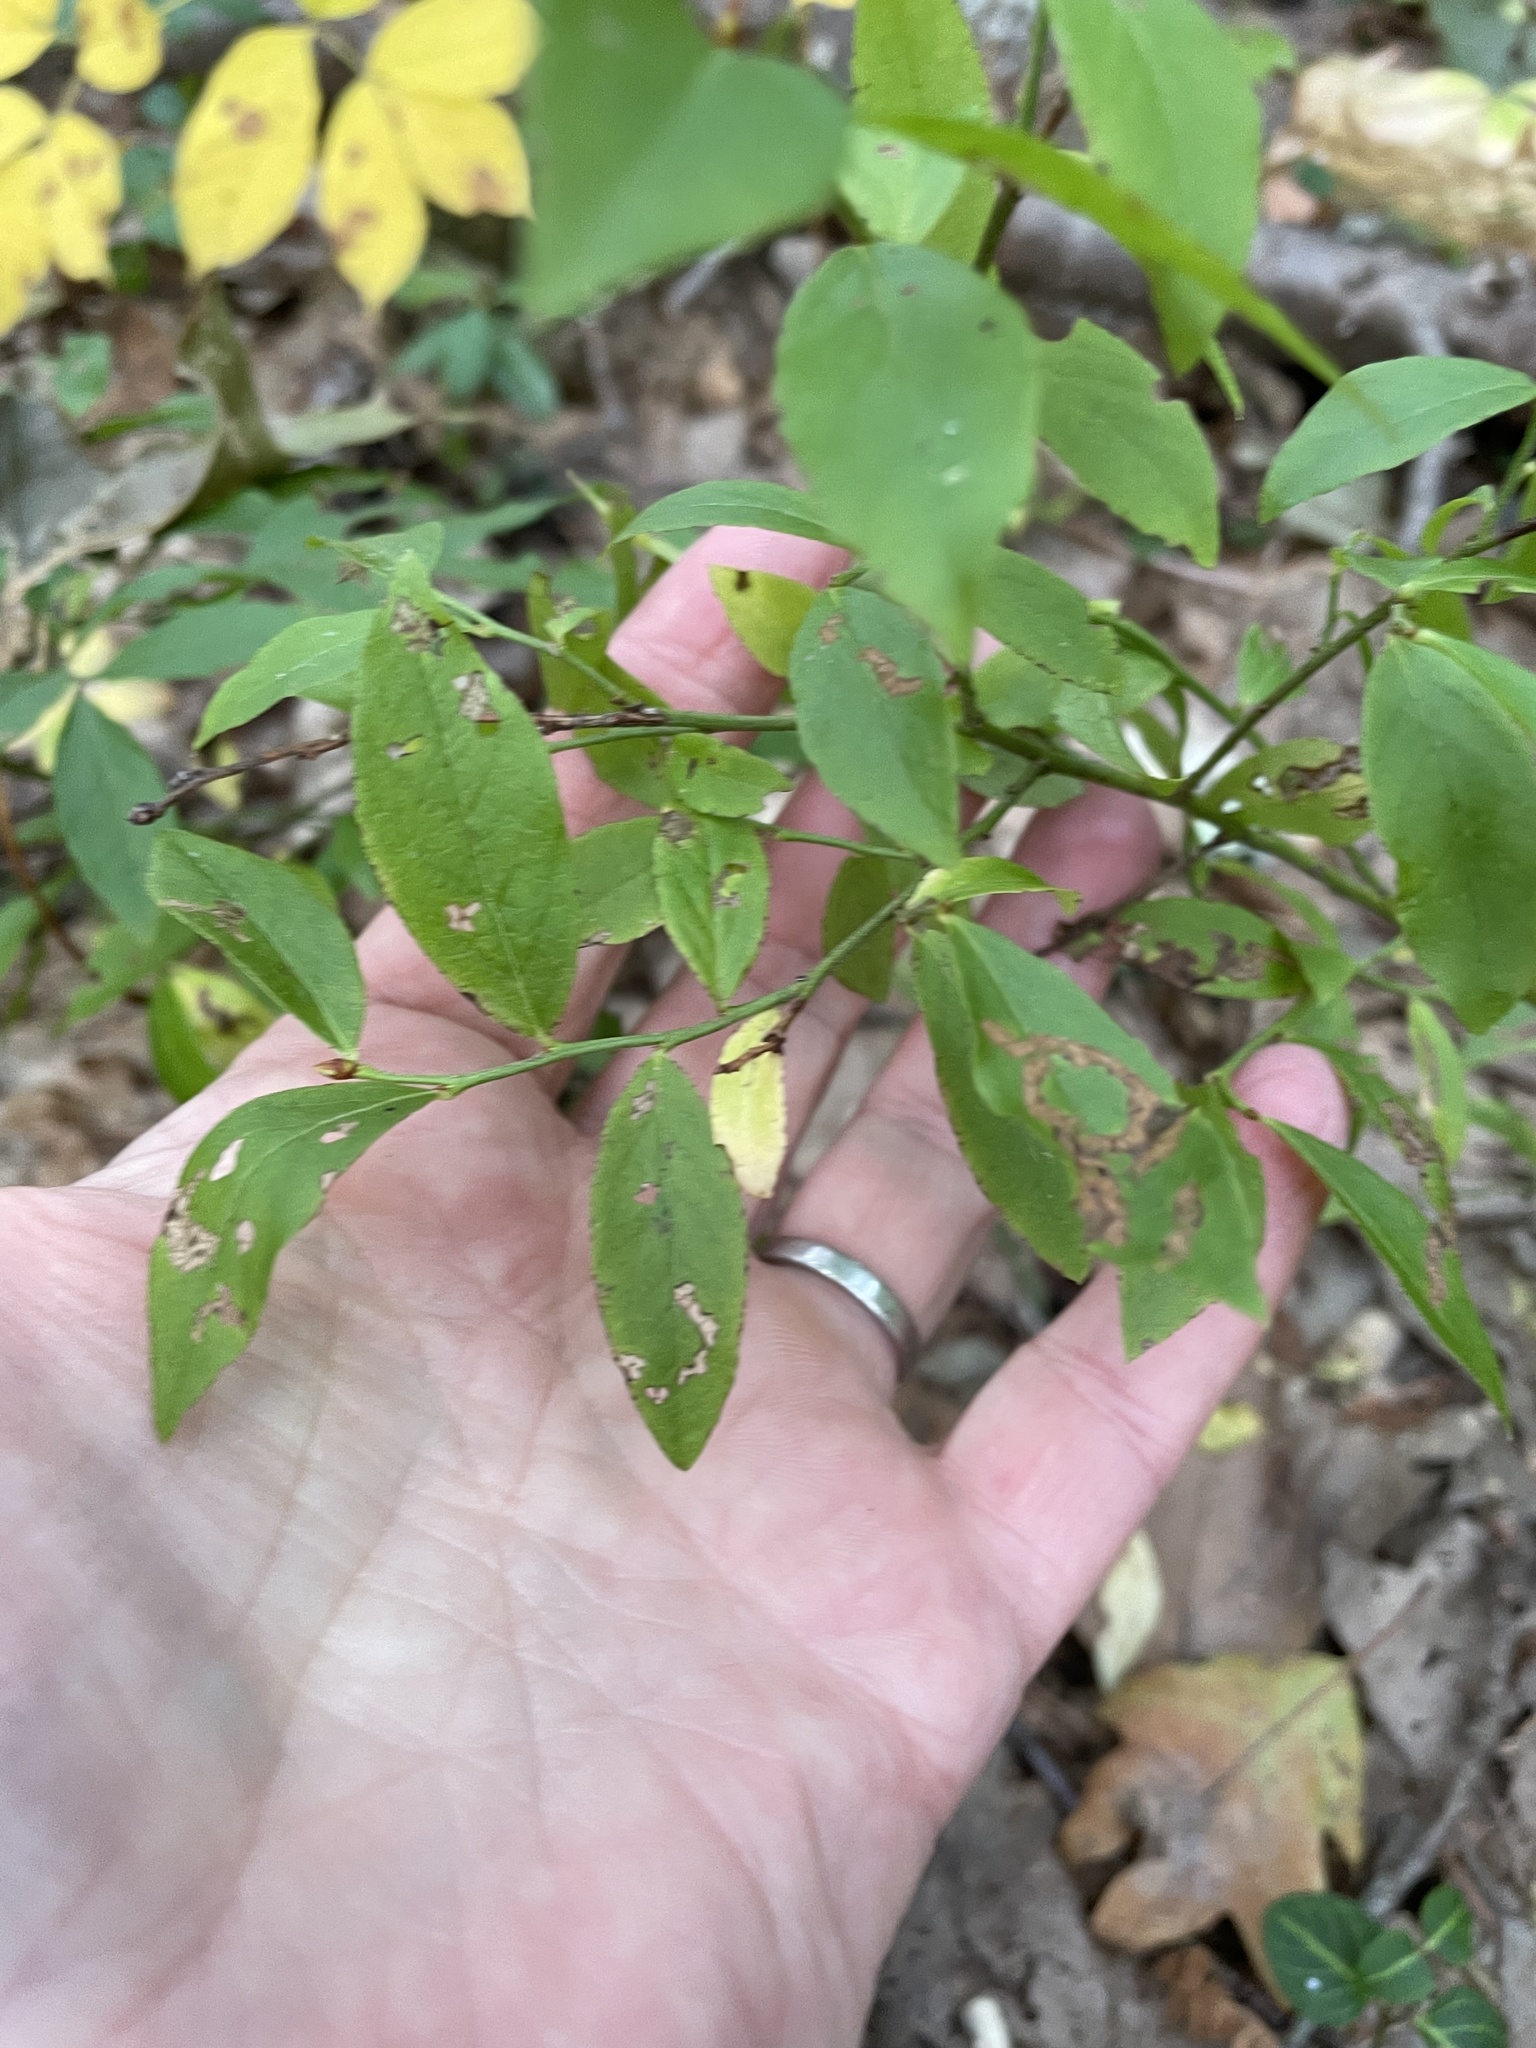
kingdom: Plantae
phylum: Tracheophyta
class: Magnoliopsida
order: Ericales
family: Ericaceae
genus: Vaccinium
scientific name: Vaccinium angustifolium
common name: Early lowbush blueberry
